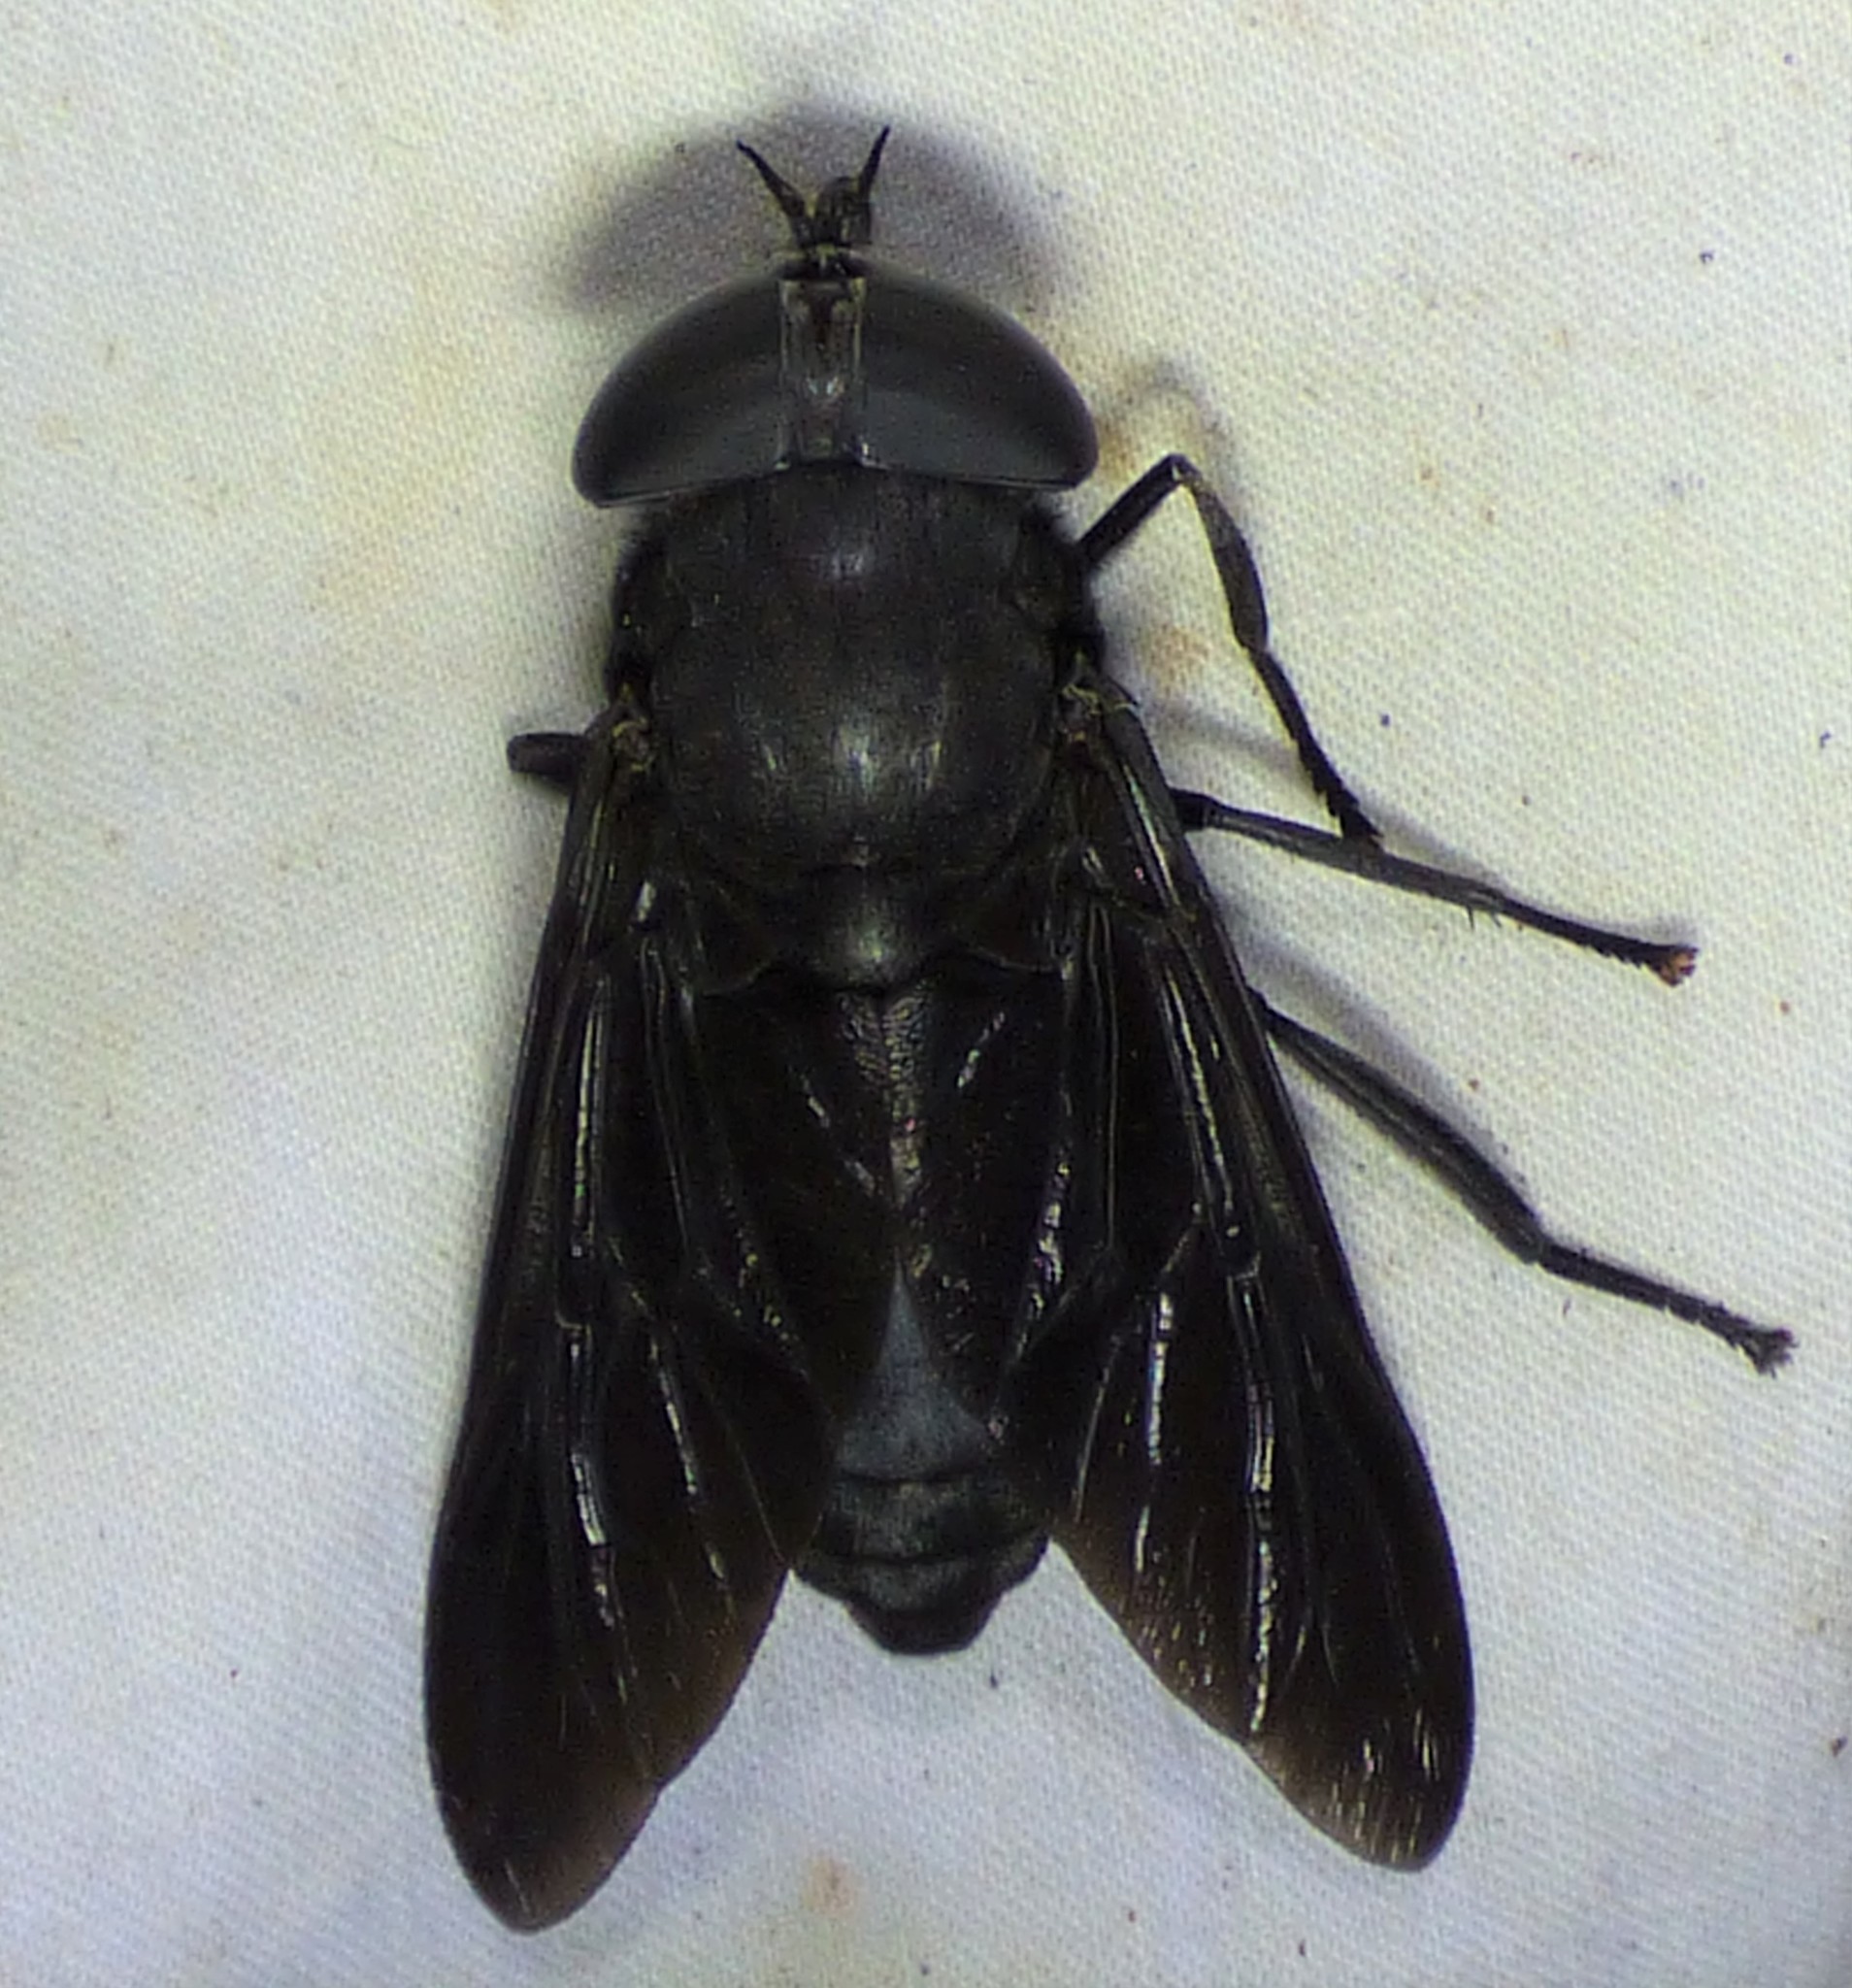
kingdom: Animalia
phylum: Arthropoda
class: Insecta
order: Diptera
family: Tabanidae
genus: Tabanus
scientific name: Tabanus atratus
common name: Black horse fly
